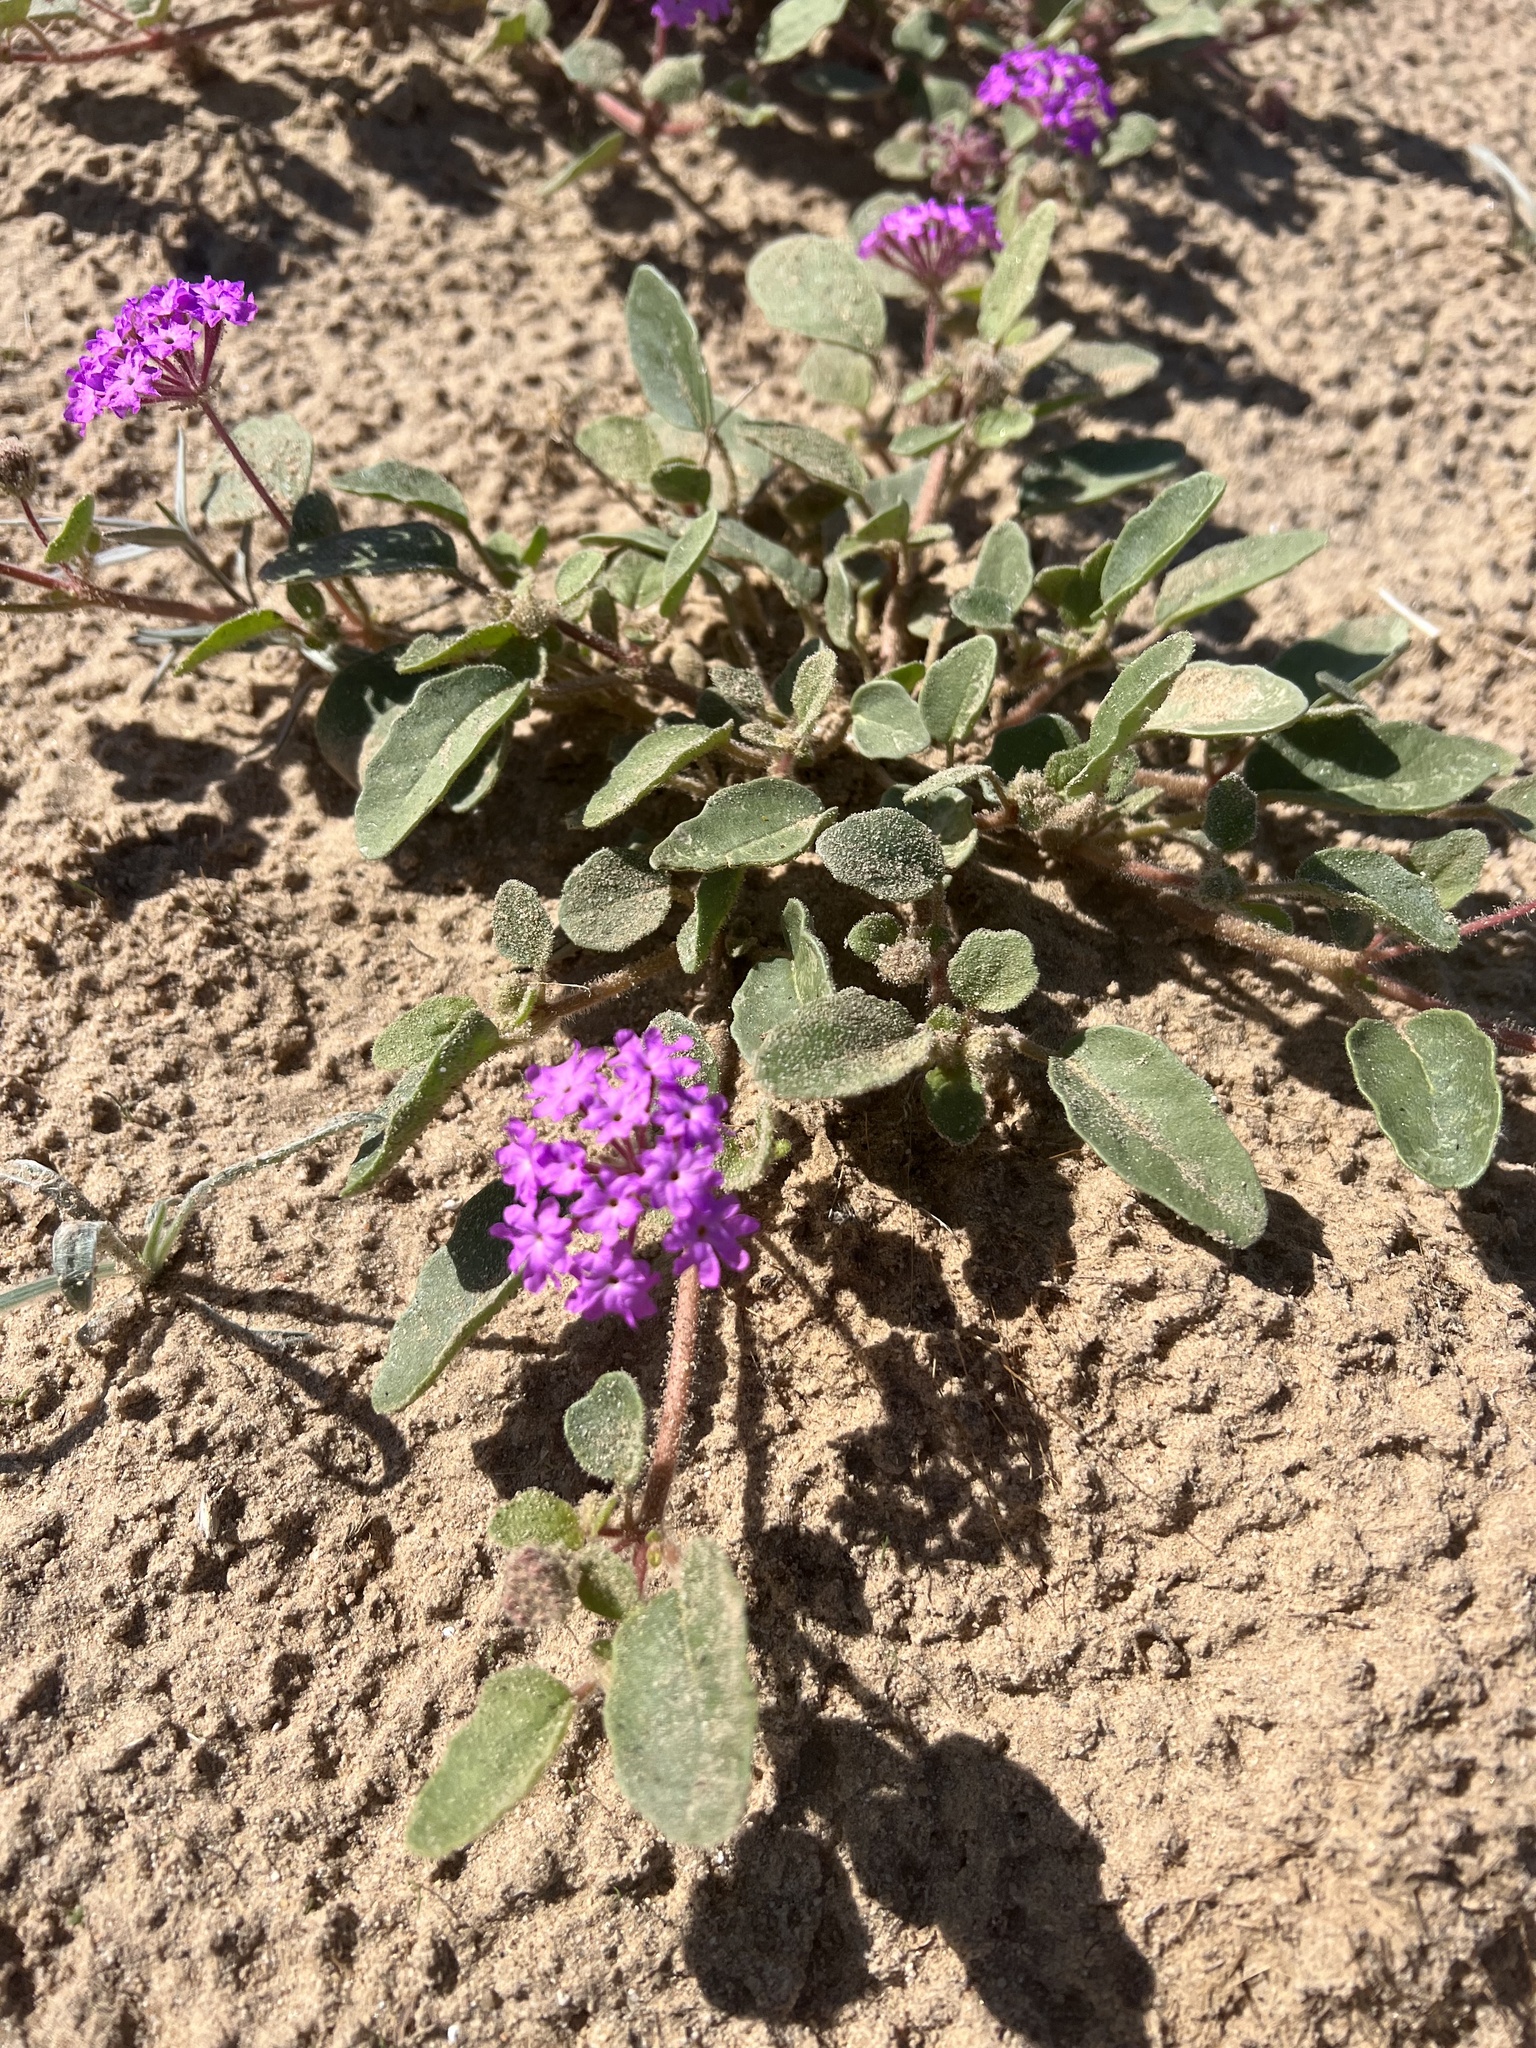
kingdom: Plantae
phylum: Tracheophyta
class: Magnoliopsida
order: Caryophyllales
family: Nyctaginaceae
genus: Abronia
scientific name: Abronia villosa
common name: Desert sand-verbena
